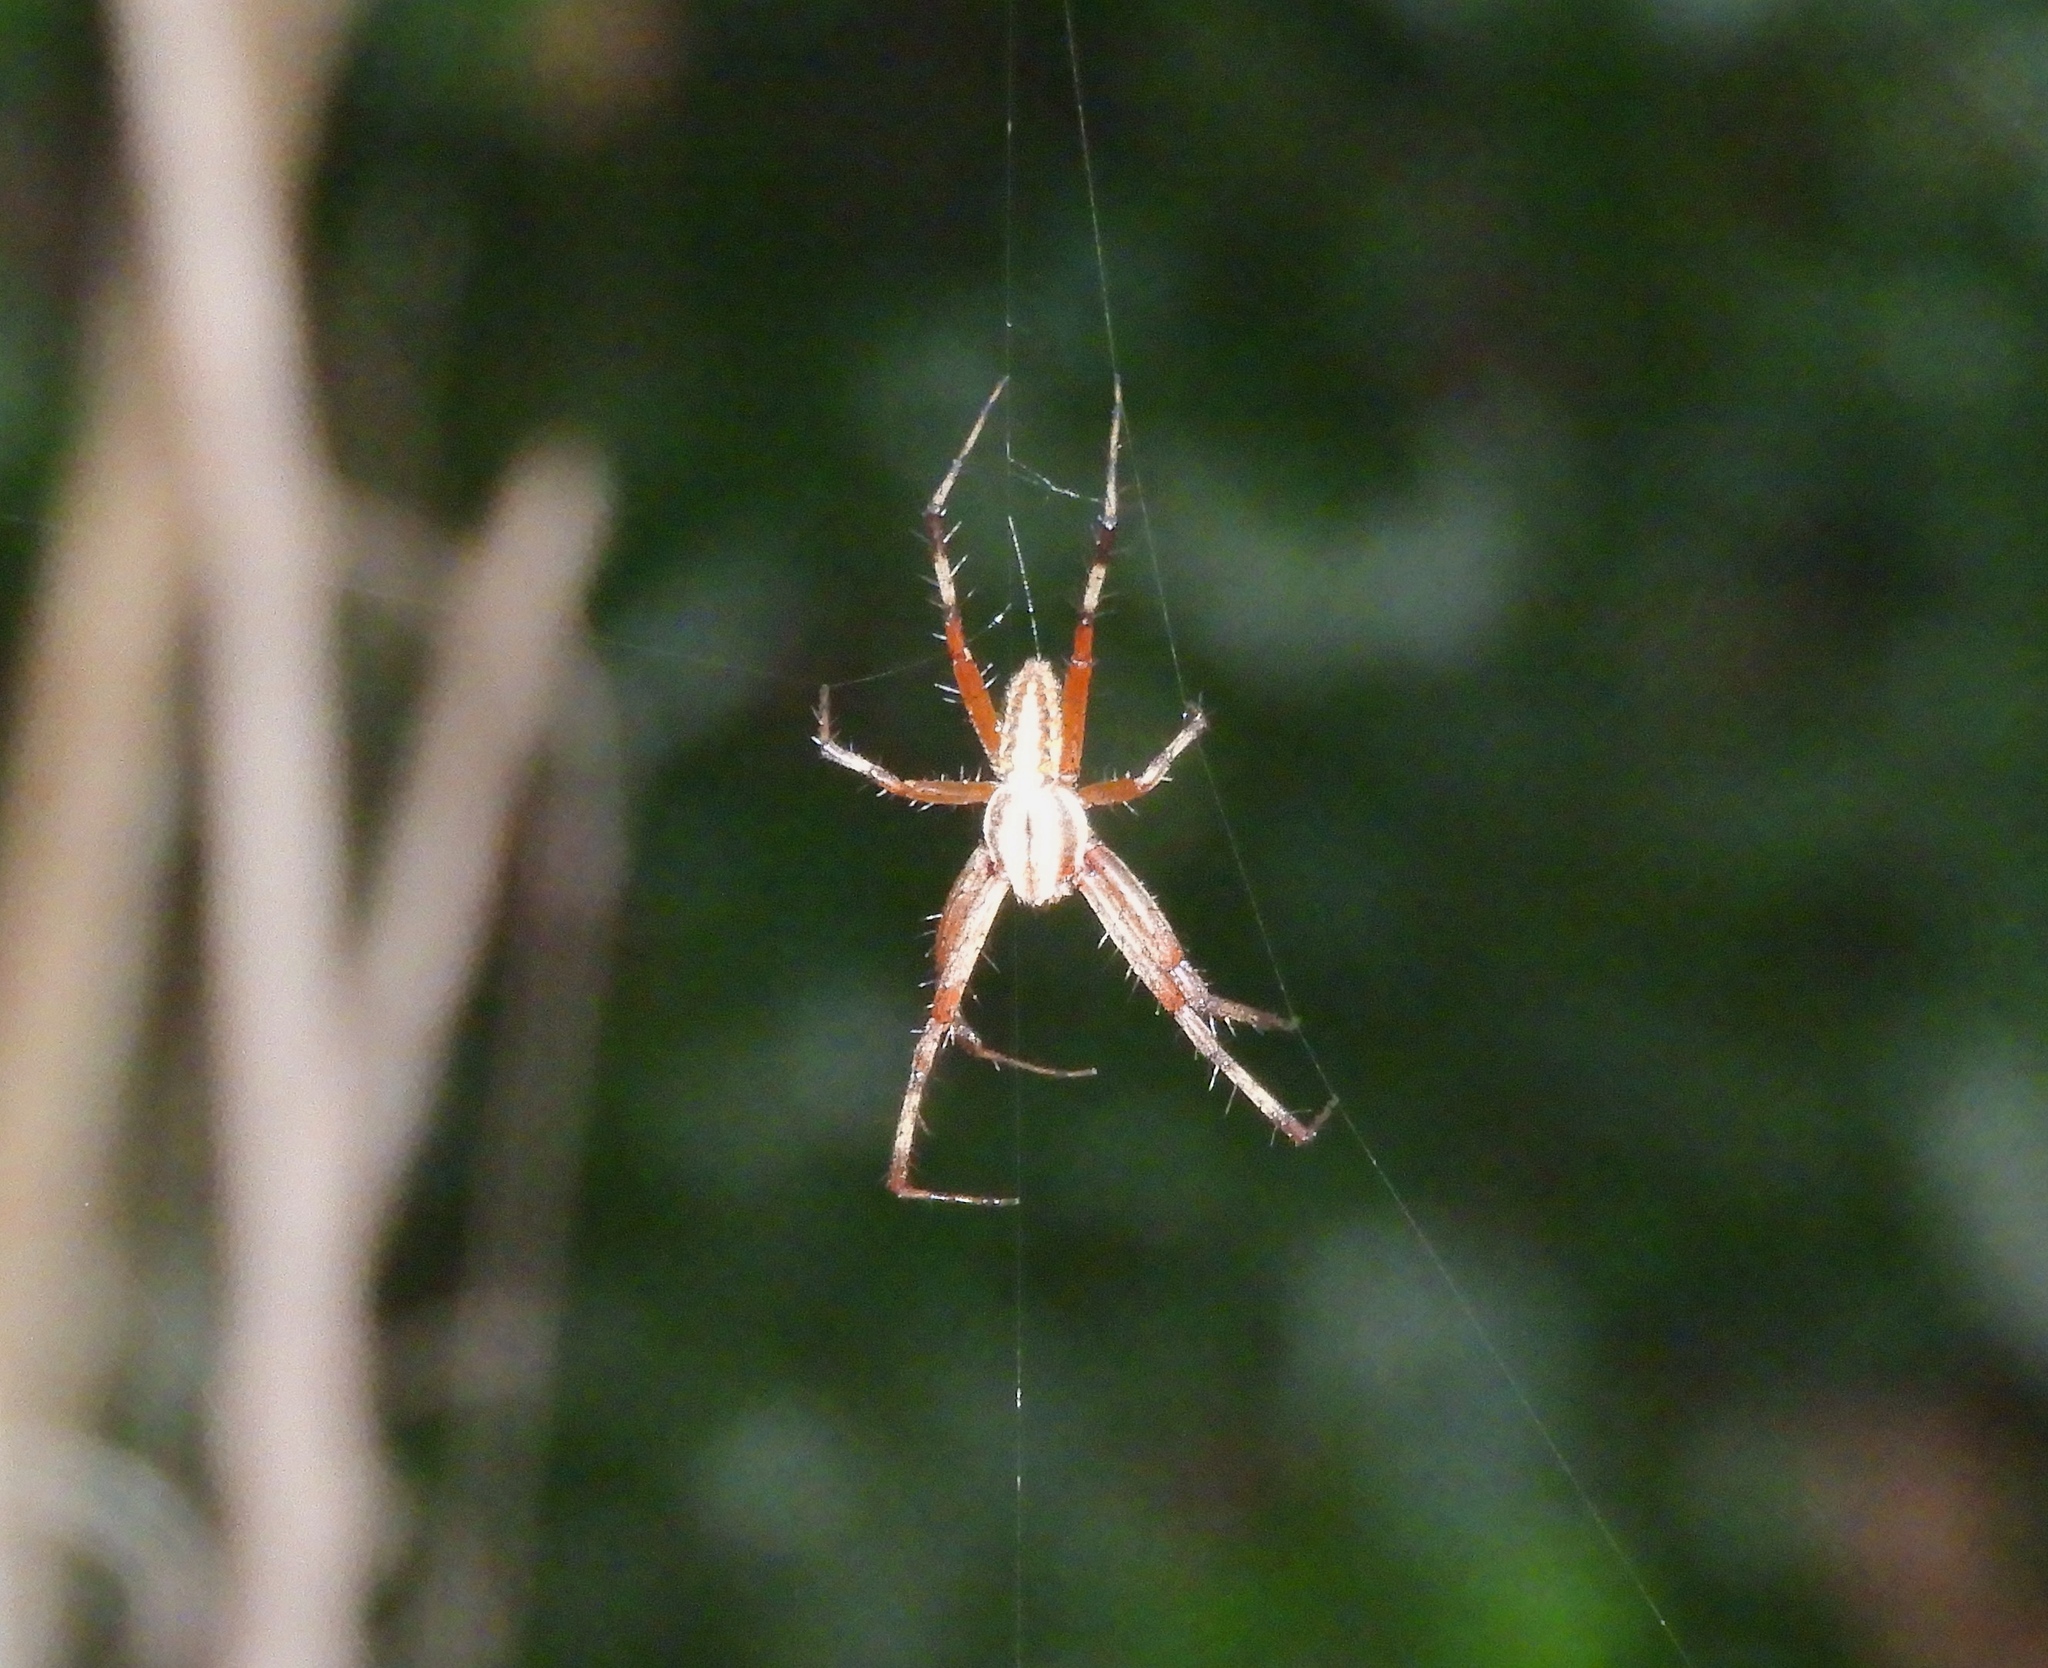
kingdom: Animalia
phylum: Arthropoda
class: Arachnida
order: Araneae
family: Araneidae
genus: Neoscona
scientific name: Neoscona
